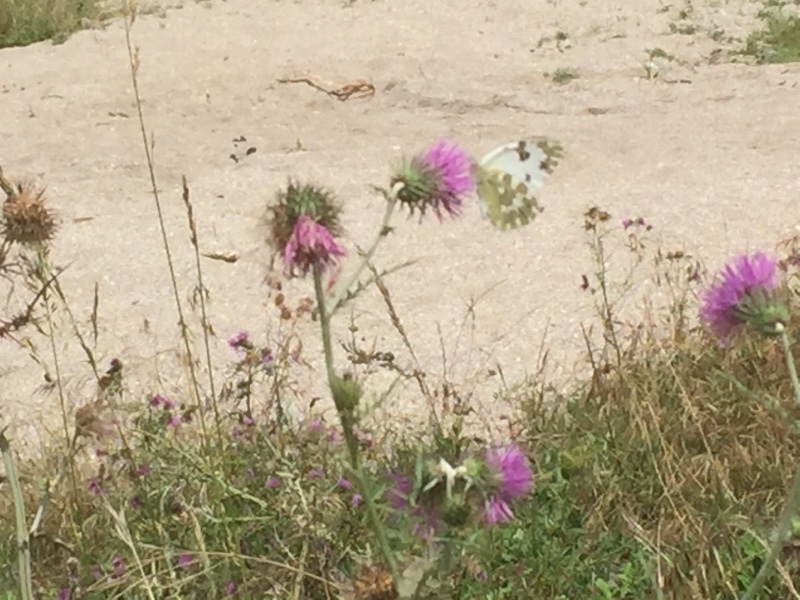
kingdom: Animalia
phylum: Arthropoda
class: Insecta
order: Lepidoptera
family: Pieridae
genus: Pontia
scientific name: Pontia daplidice
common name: Bath white
